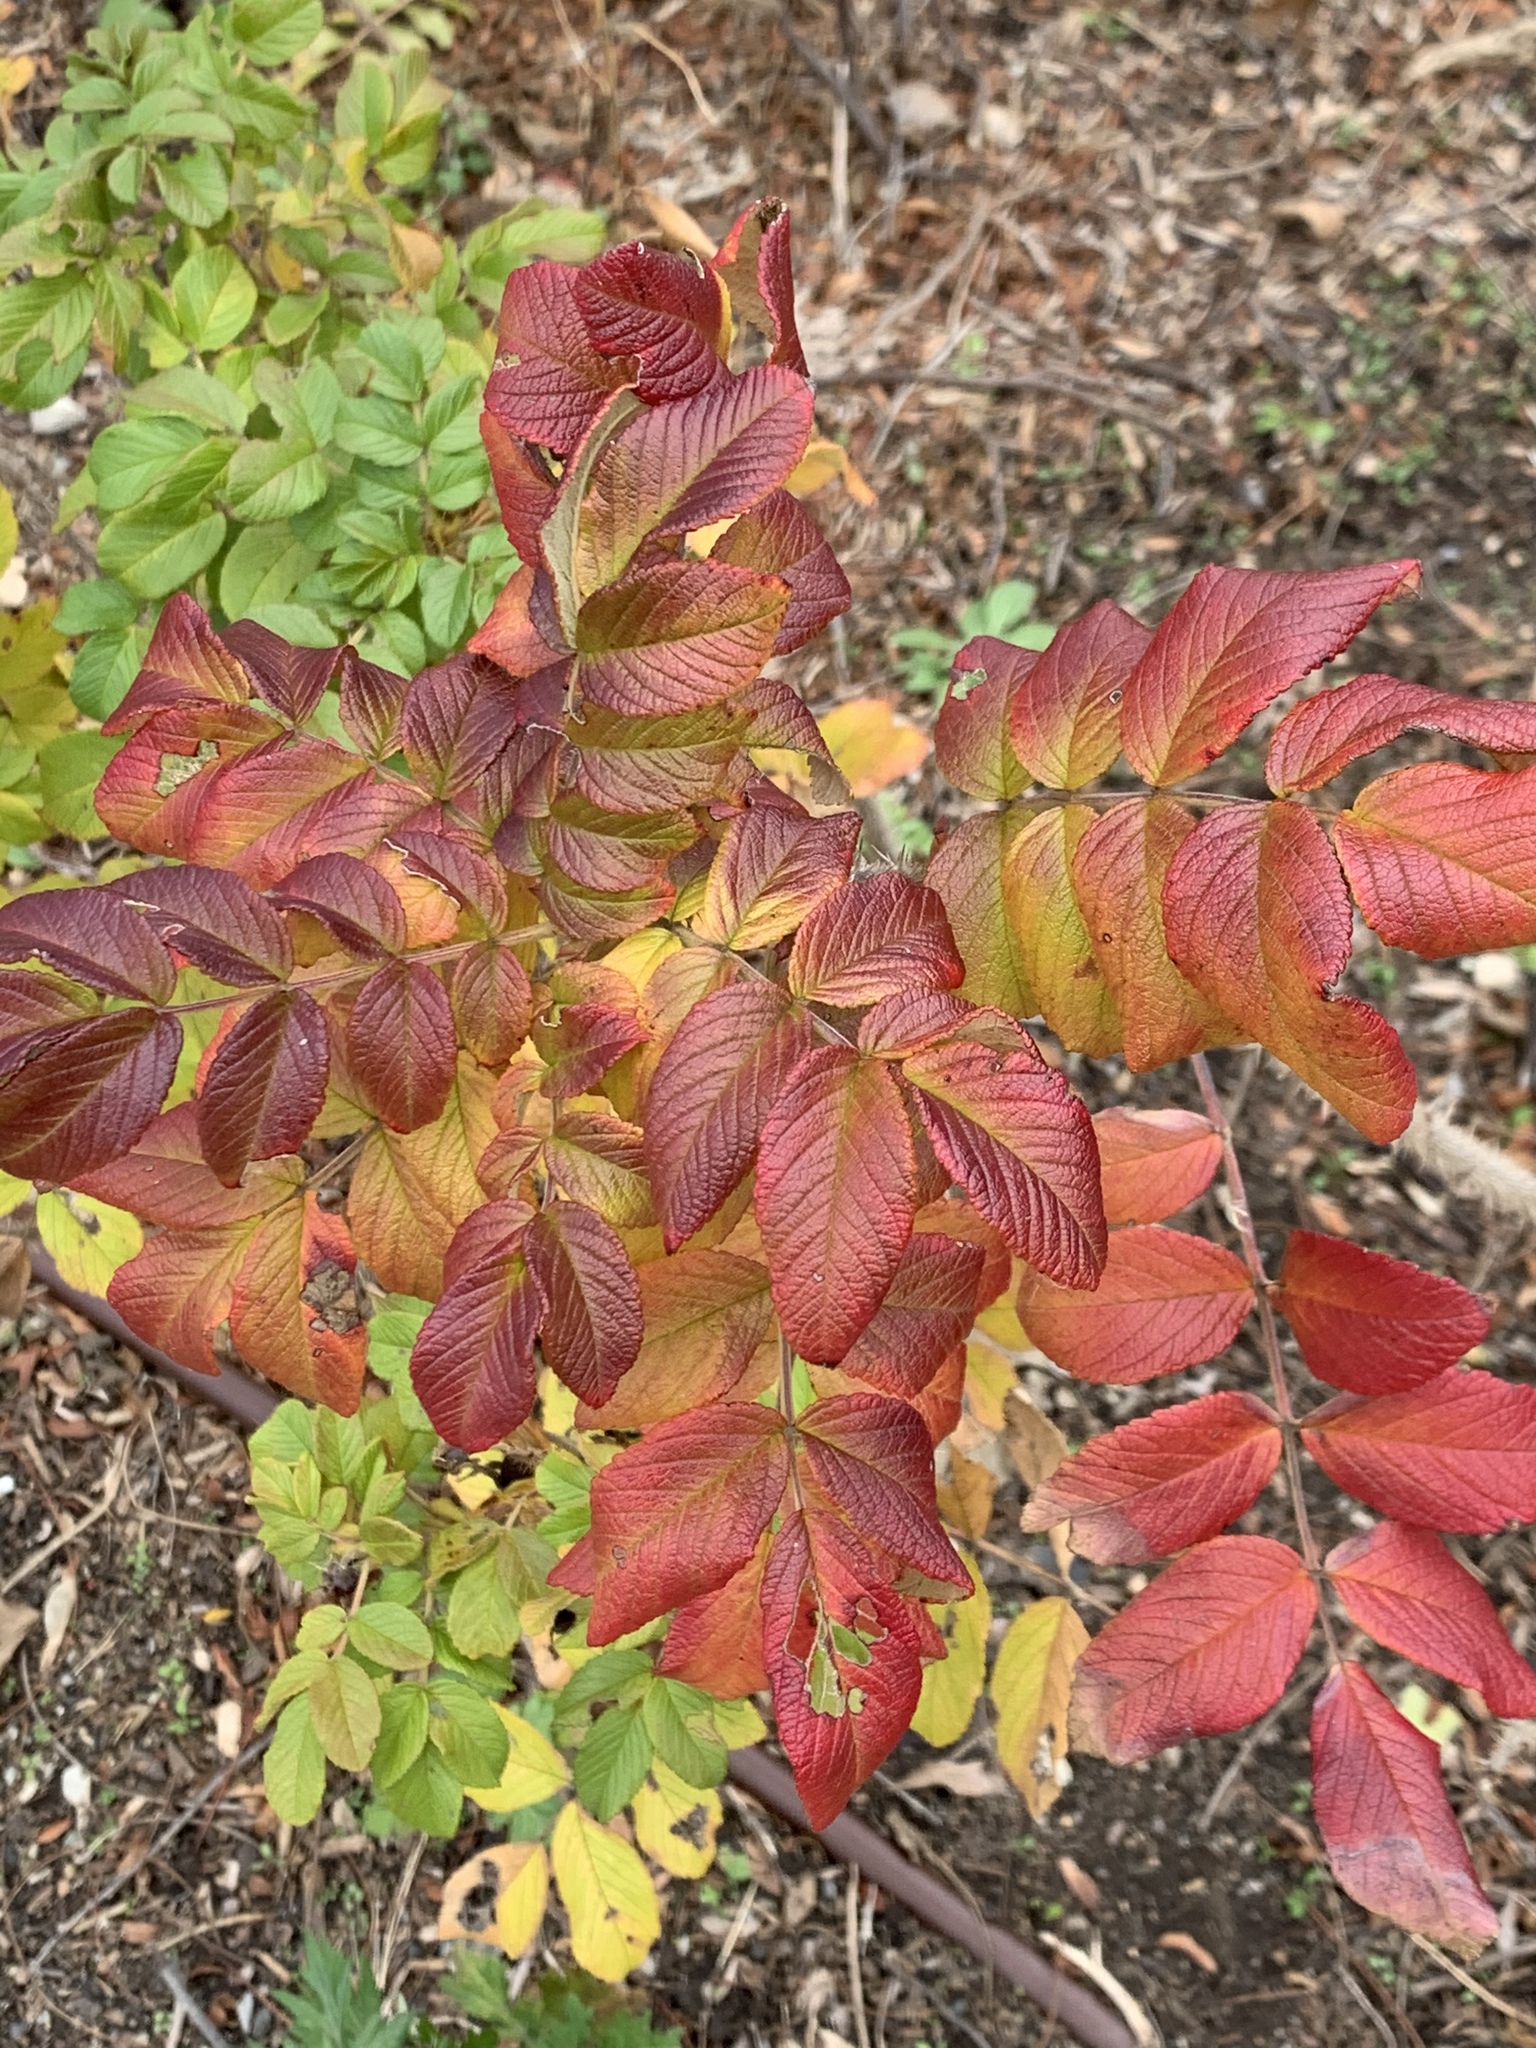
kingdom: Plantae
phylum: Tracheophyta
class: Magnoliopsida
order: Rosales
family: Rosaceae
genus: Rosa
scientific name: Rosa rugosa
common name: Japanese rose
